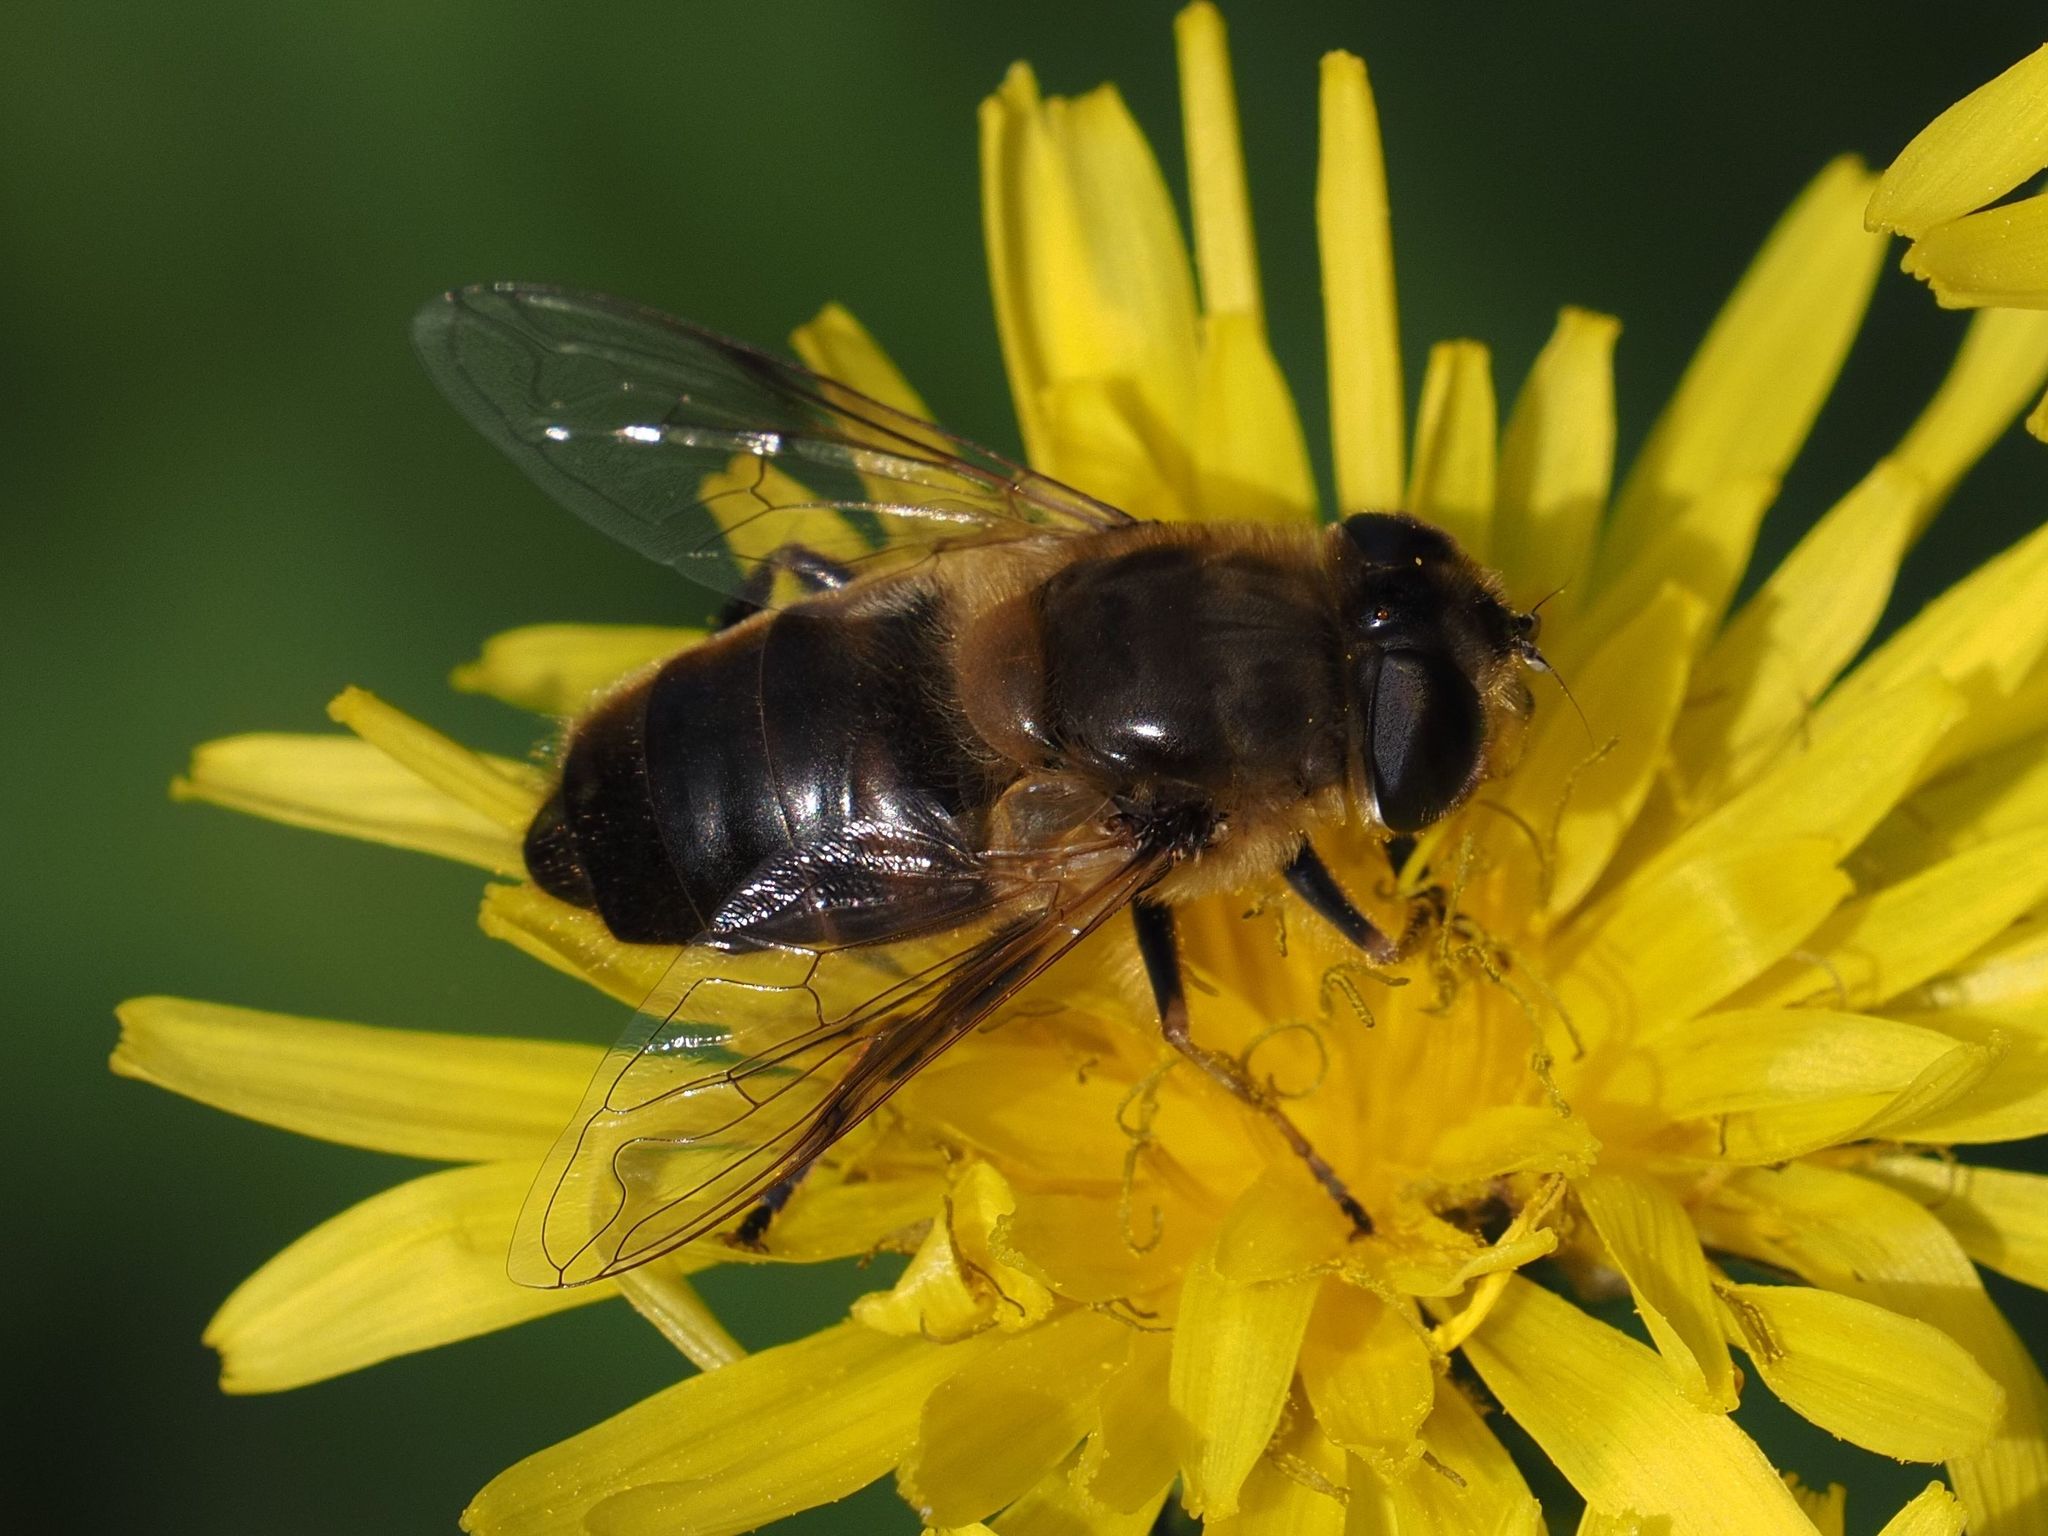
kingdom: Animalia
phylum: Arthropoda
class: Insecta
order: Diptera
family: Syrphidae
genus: Eristalis
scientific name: Eristalis tenax
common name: Drone fly
